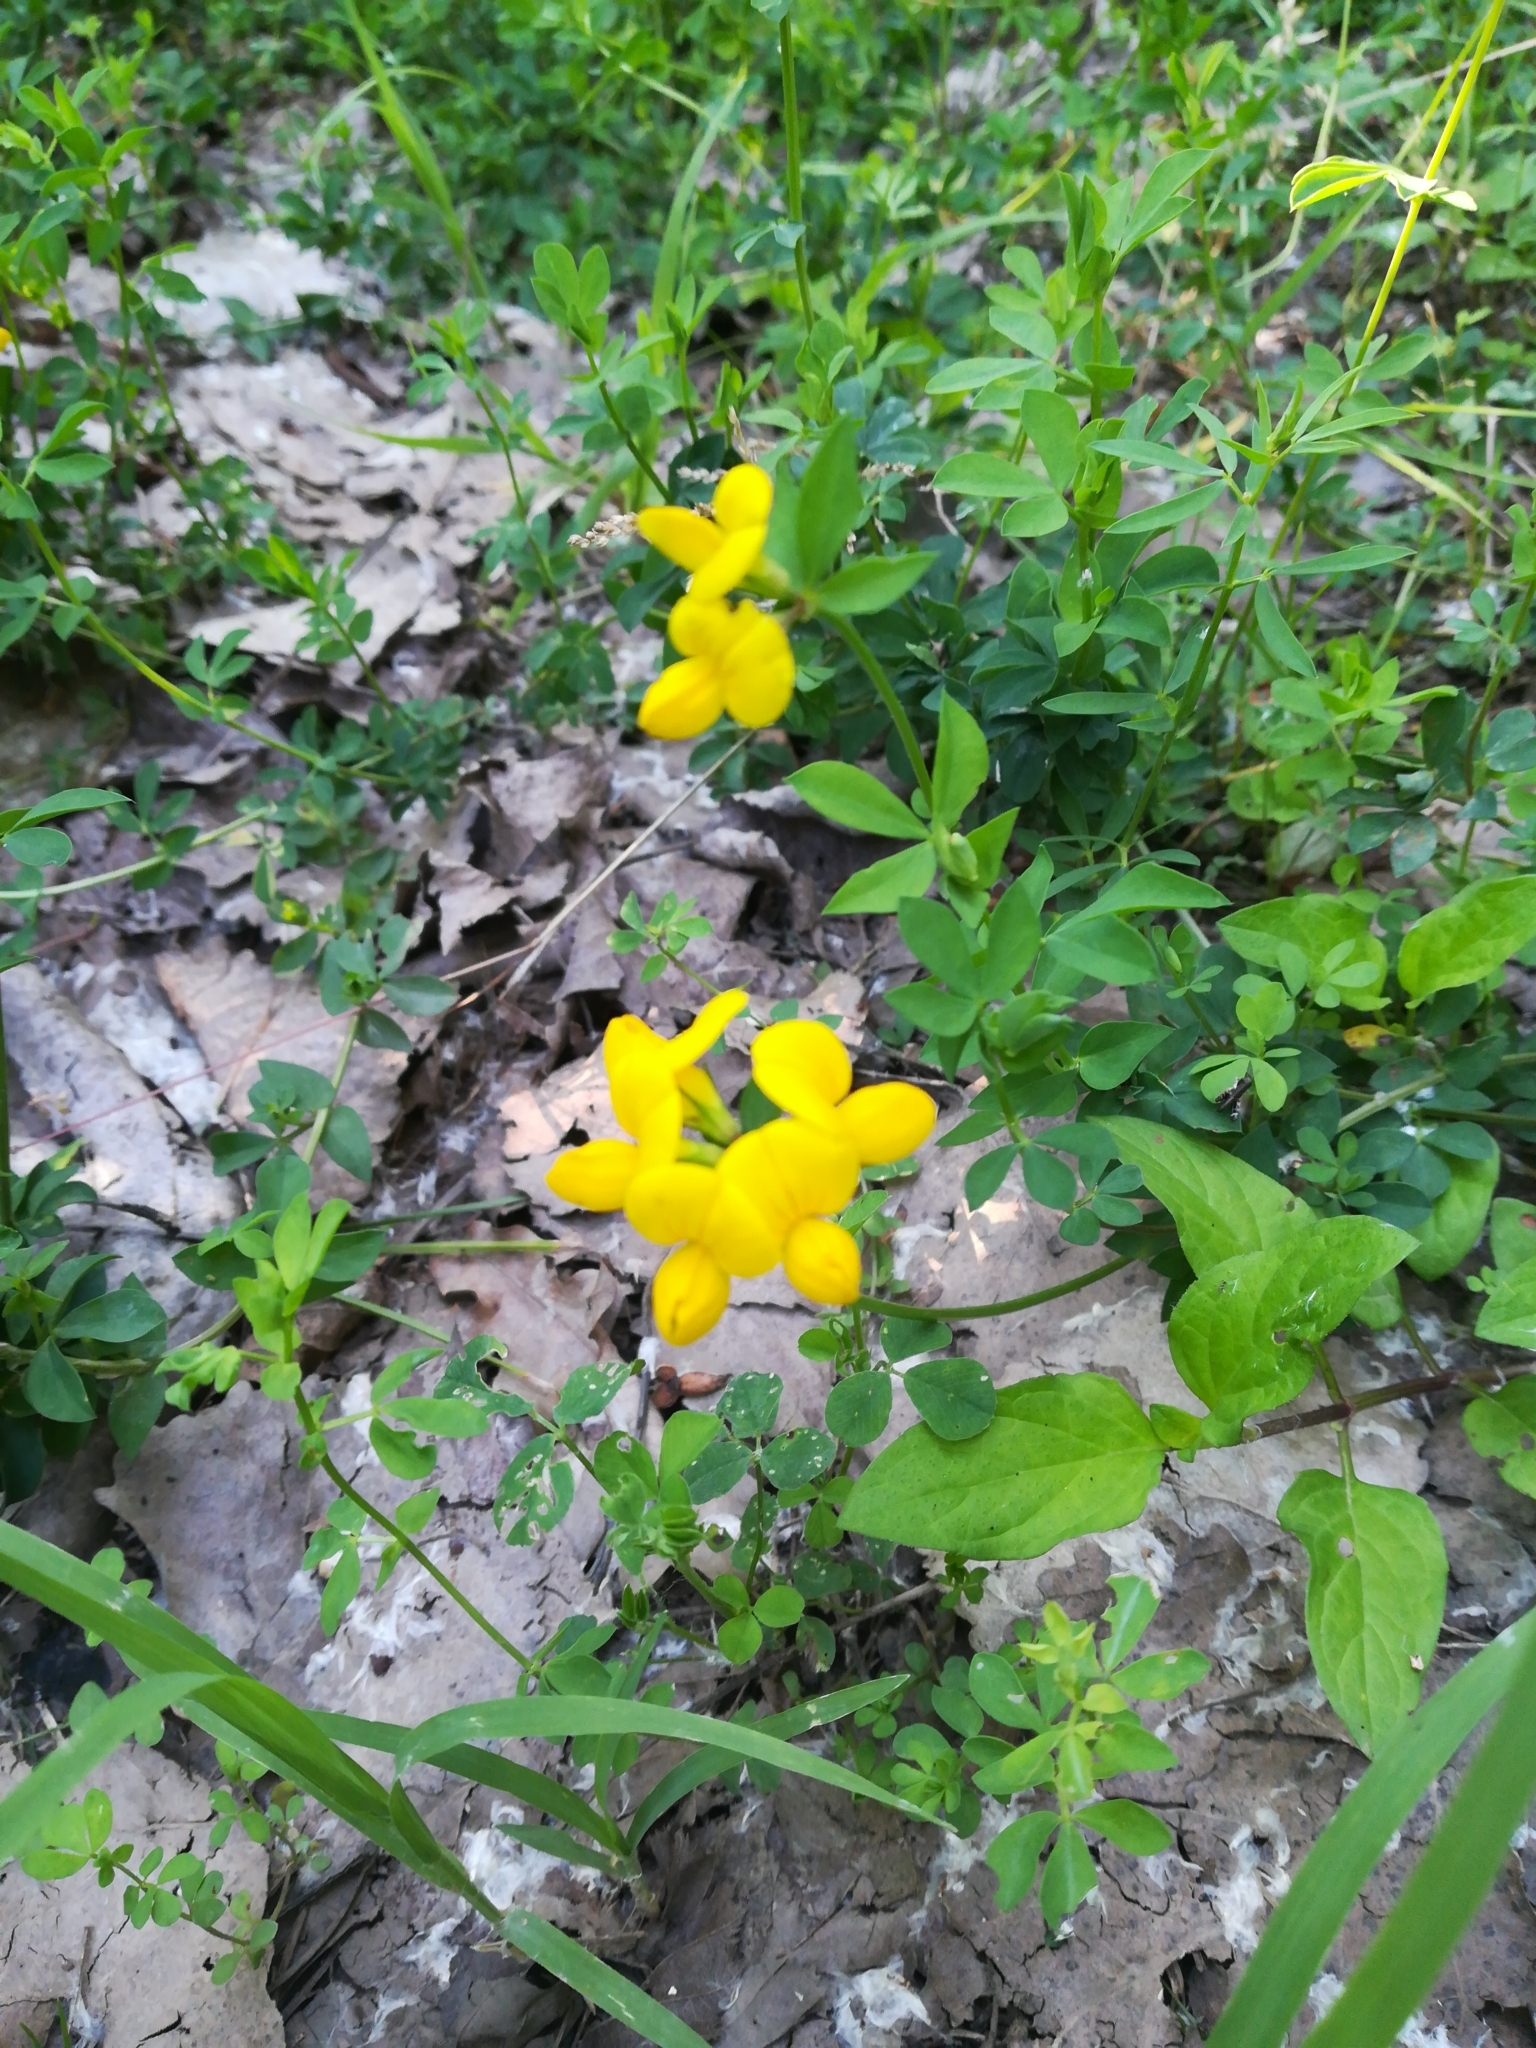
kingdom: Plantae
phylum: Tracheophyta
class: Magnoliopsida
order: Fabales
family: Fabaceae
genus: Lotus
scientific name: Lotus corniculatus
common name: Common bird's-foot-trefoil
